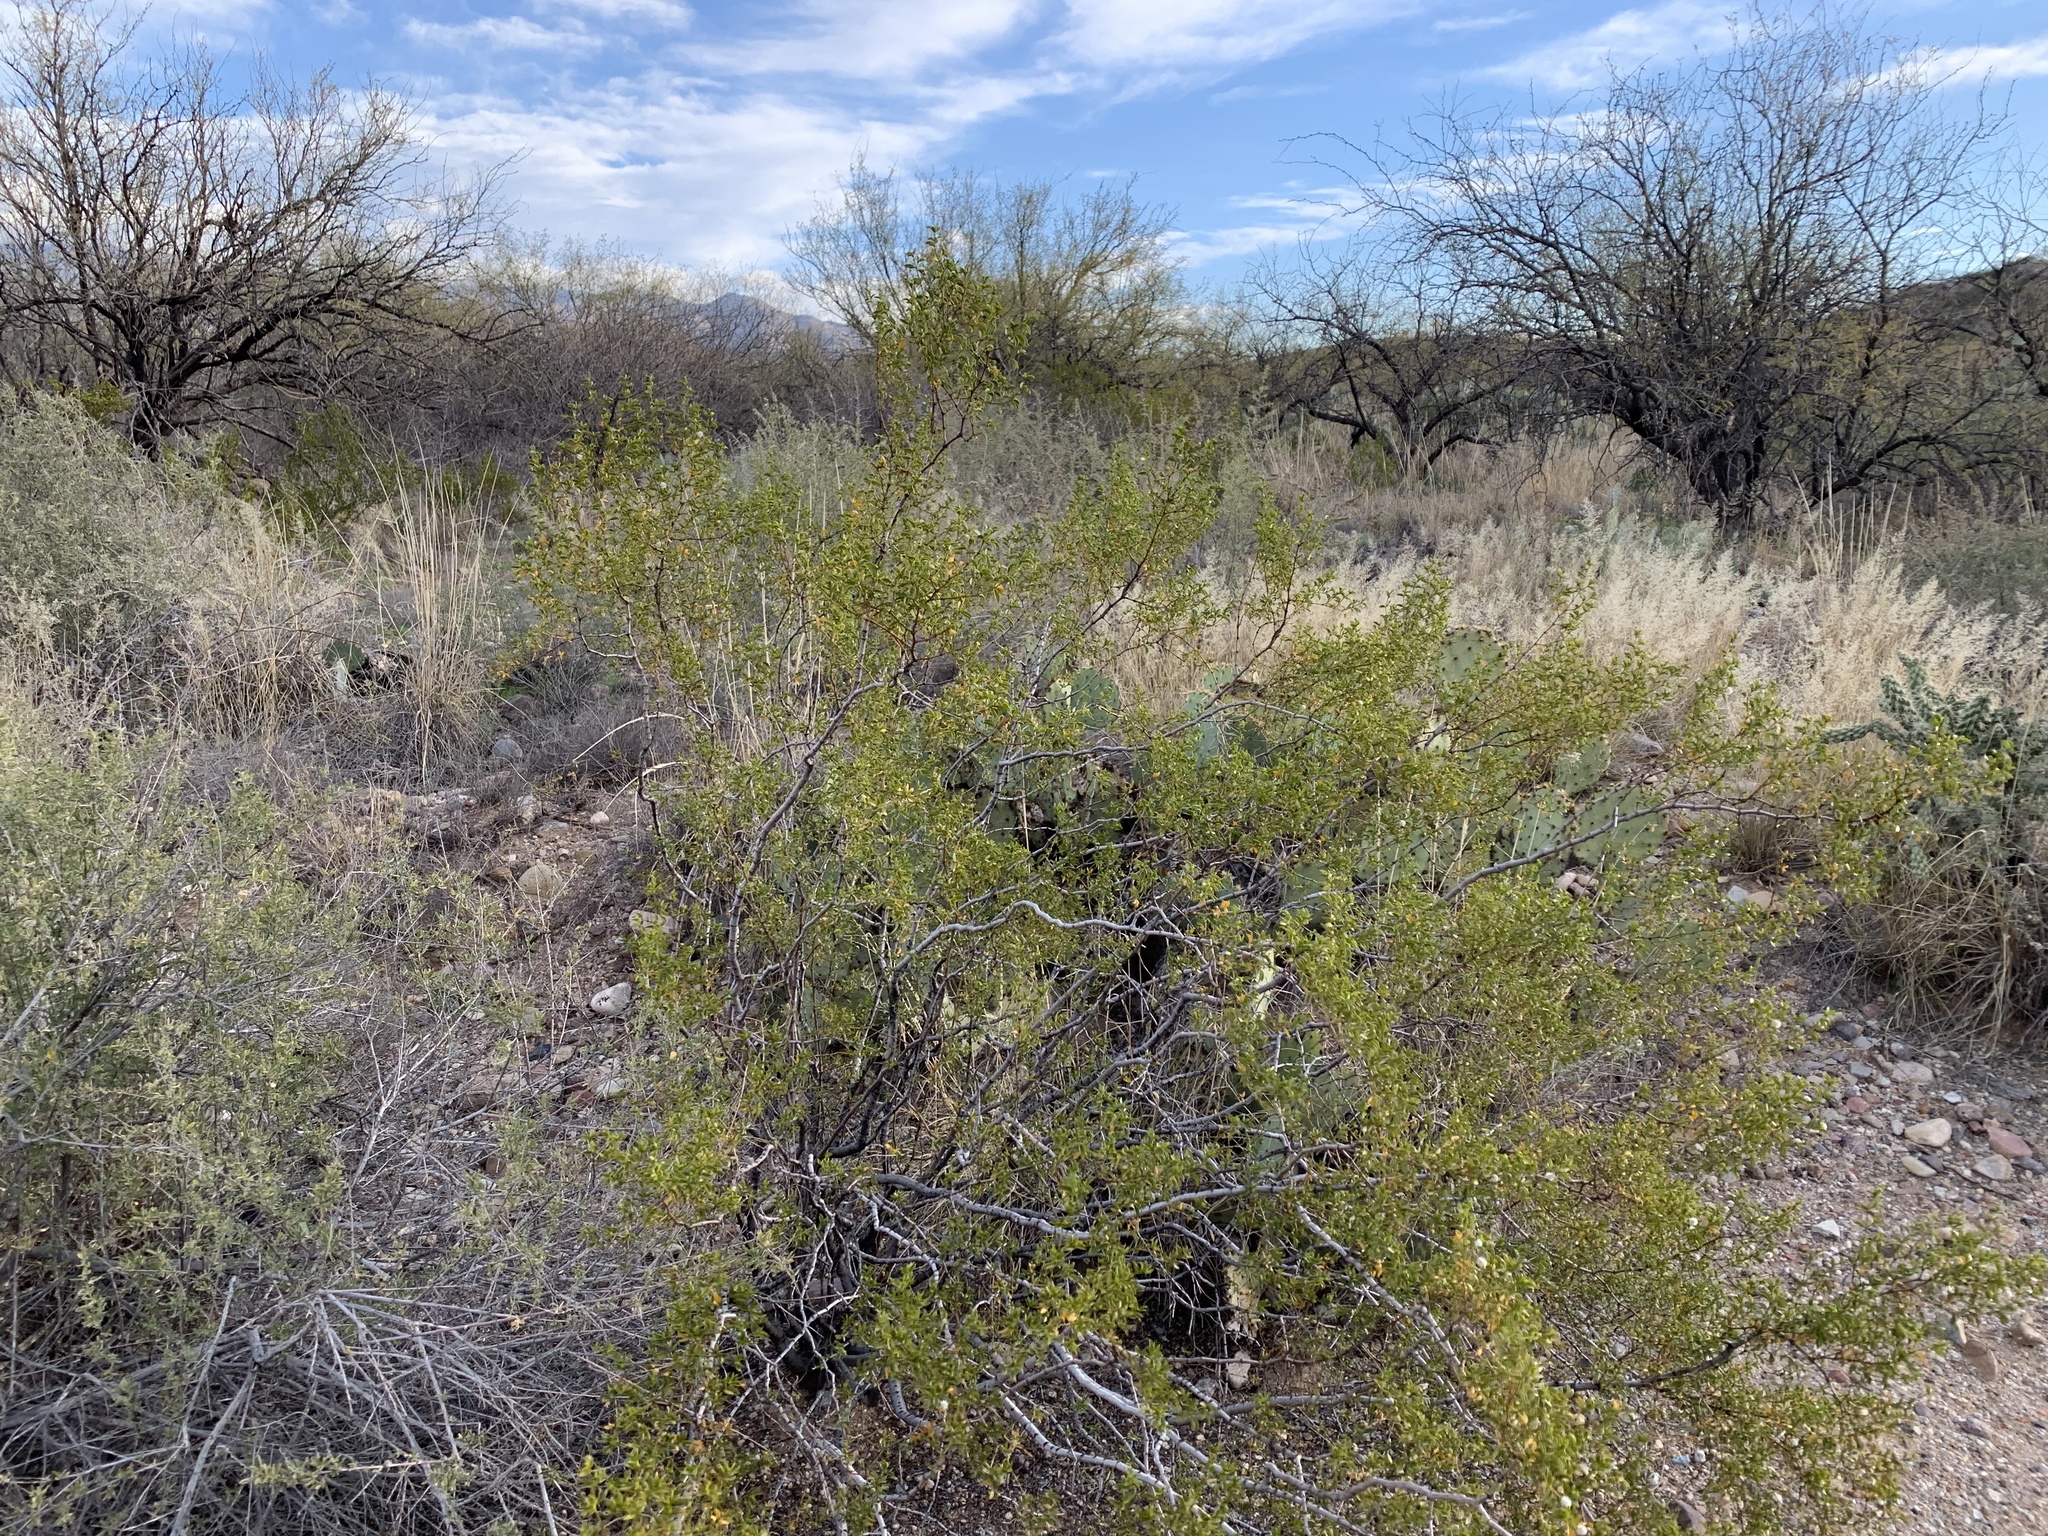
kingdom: Plantae
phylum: Tracheophyta
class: Magnoliopsida
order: Zygophyllales
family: Zygophyllaceae
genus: Larrea
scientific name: Larrea tridentata
